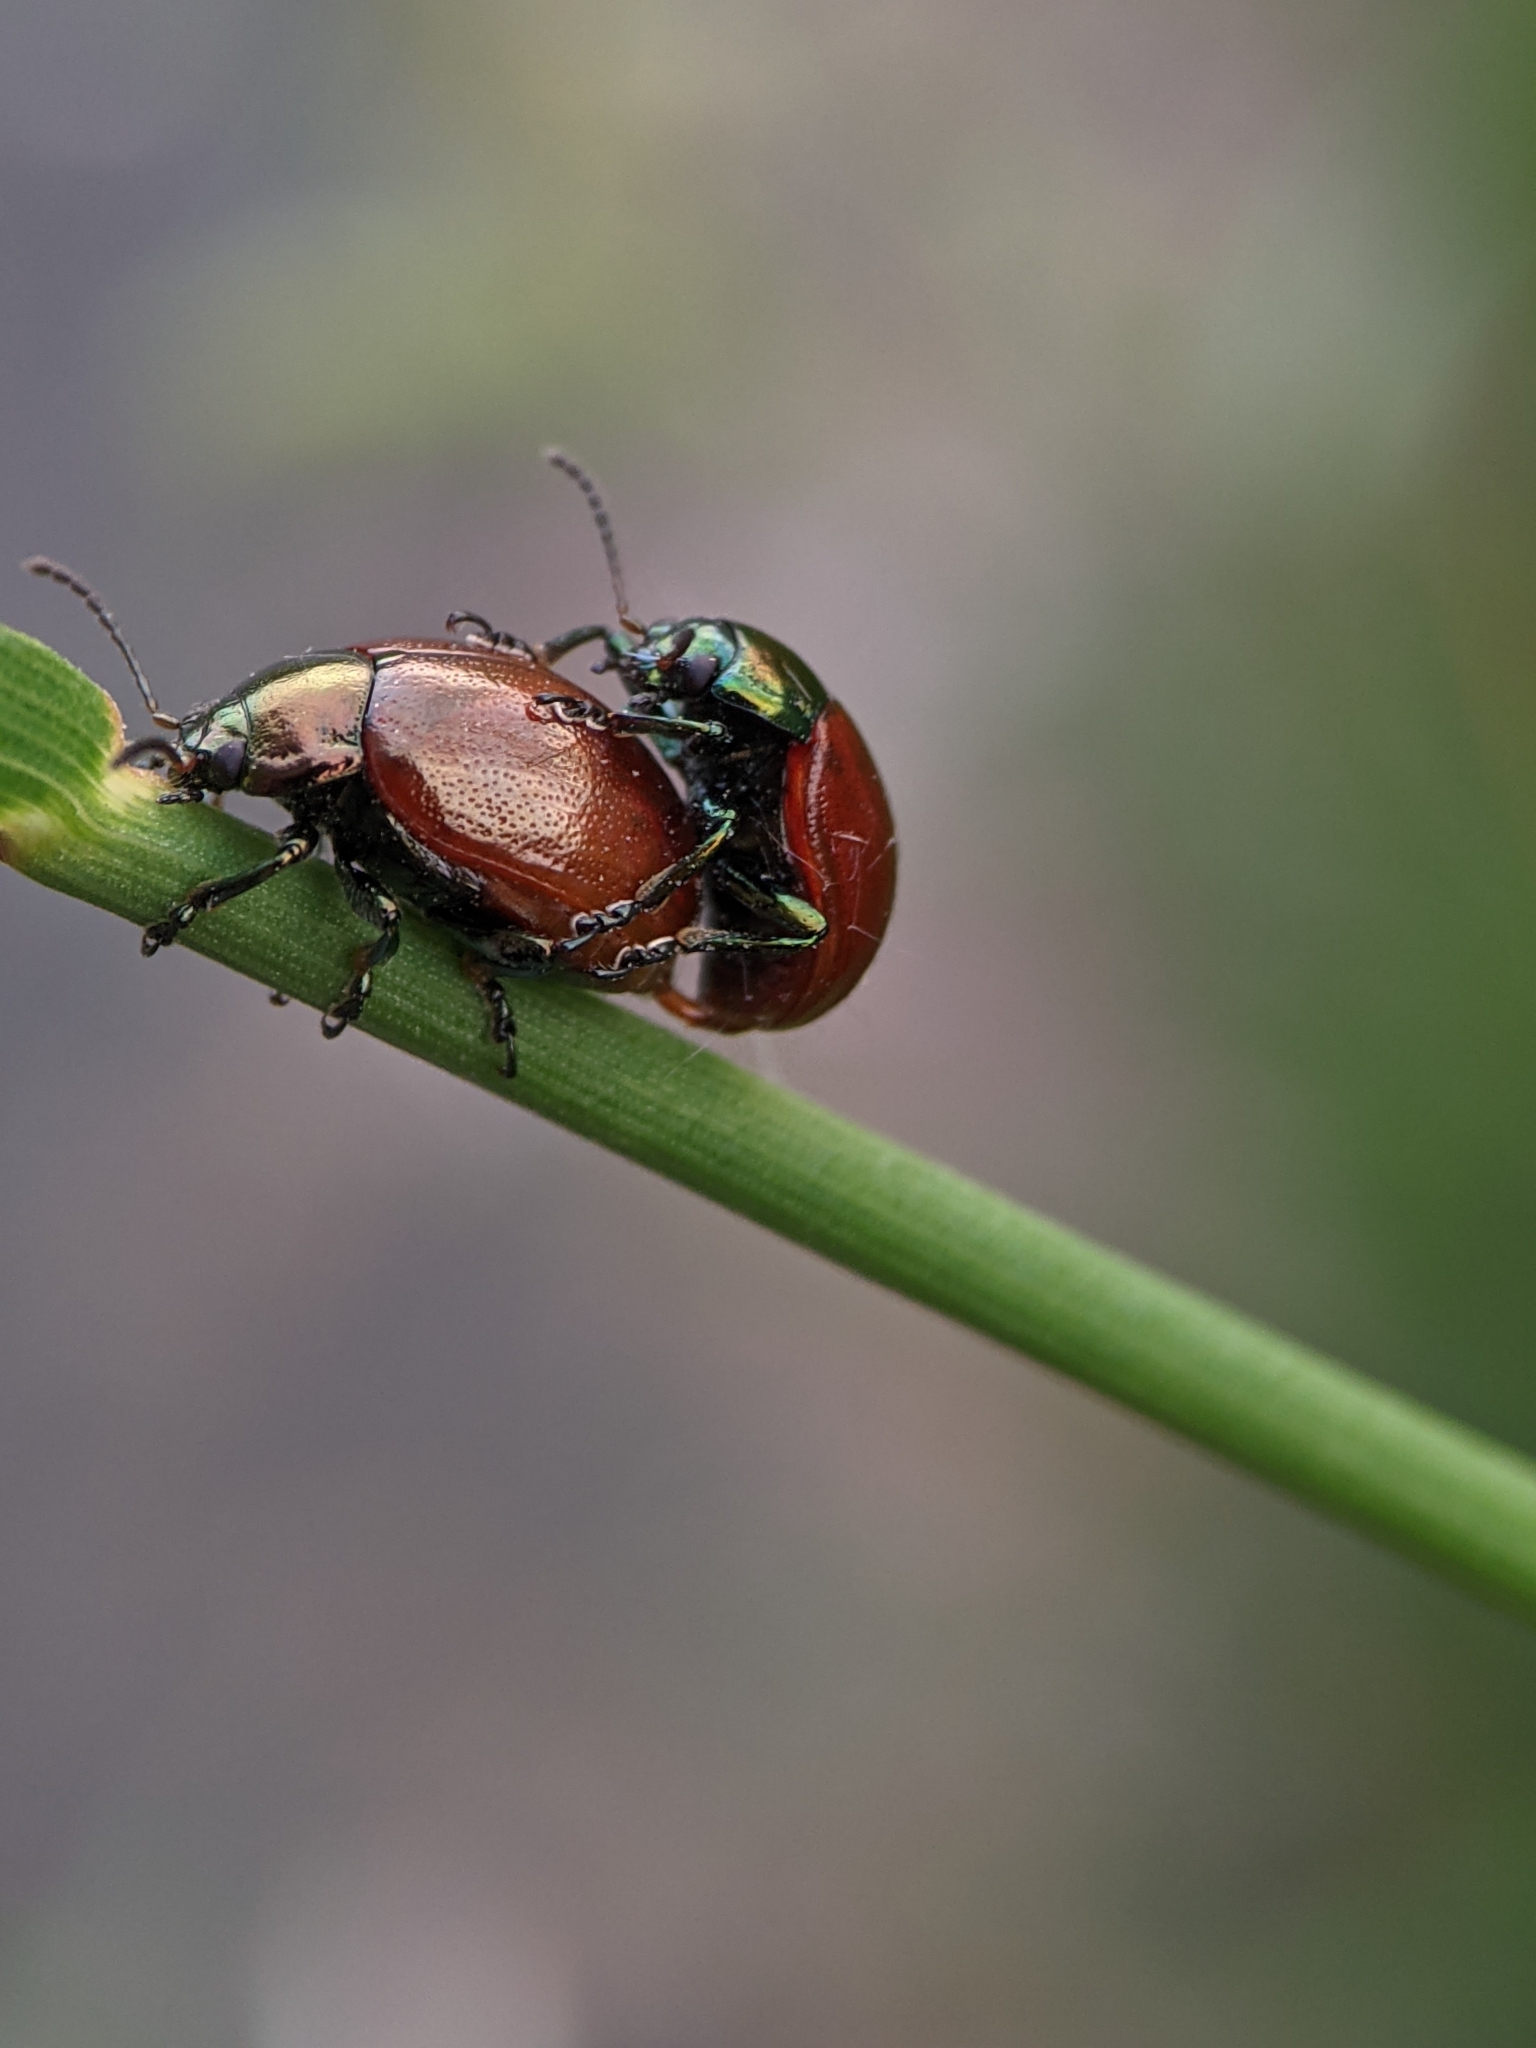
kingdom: Animalia
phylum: Arthropoda
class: Insecta
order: Coleoptera
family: Chrysomelidae
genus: Chrysomela
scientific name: Chrysomela polita
